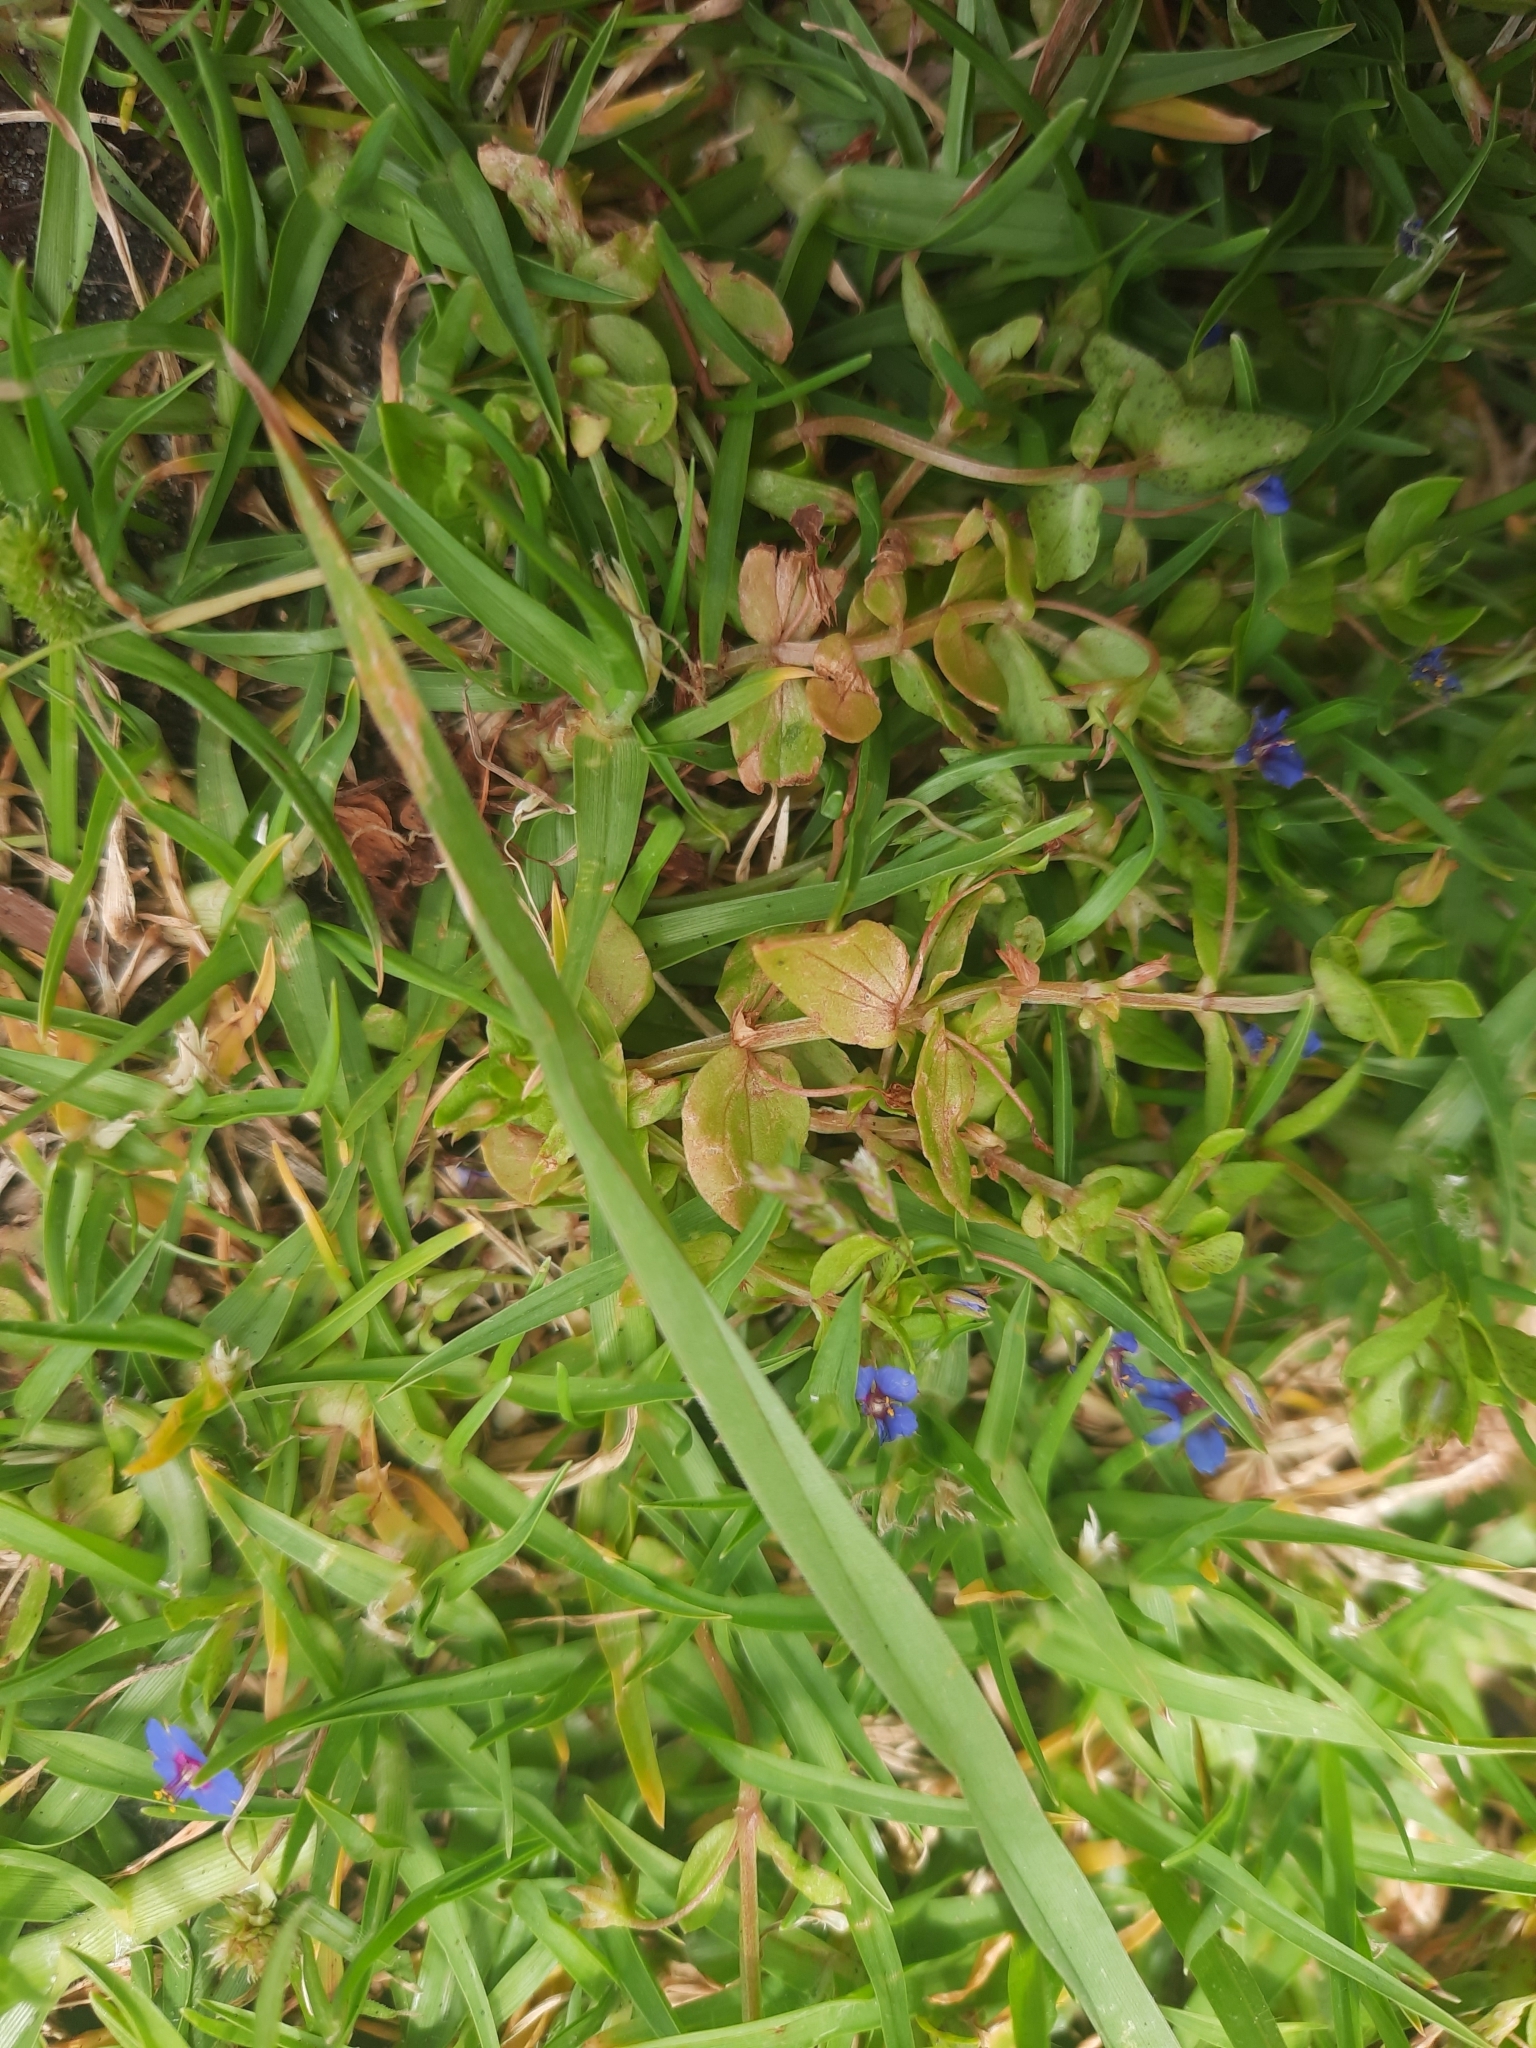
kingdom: Plantae
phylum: Tracheophyta
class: Magnoliopsida
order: Ericales
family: Primulaceae
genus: Lysimachia
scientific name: Lysimachia loeflingii
